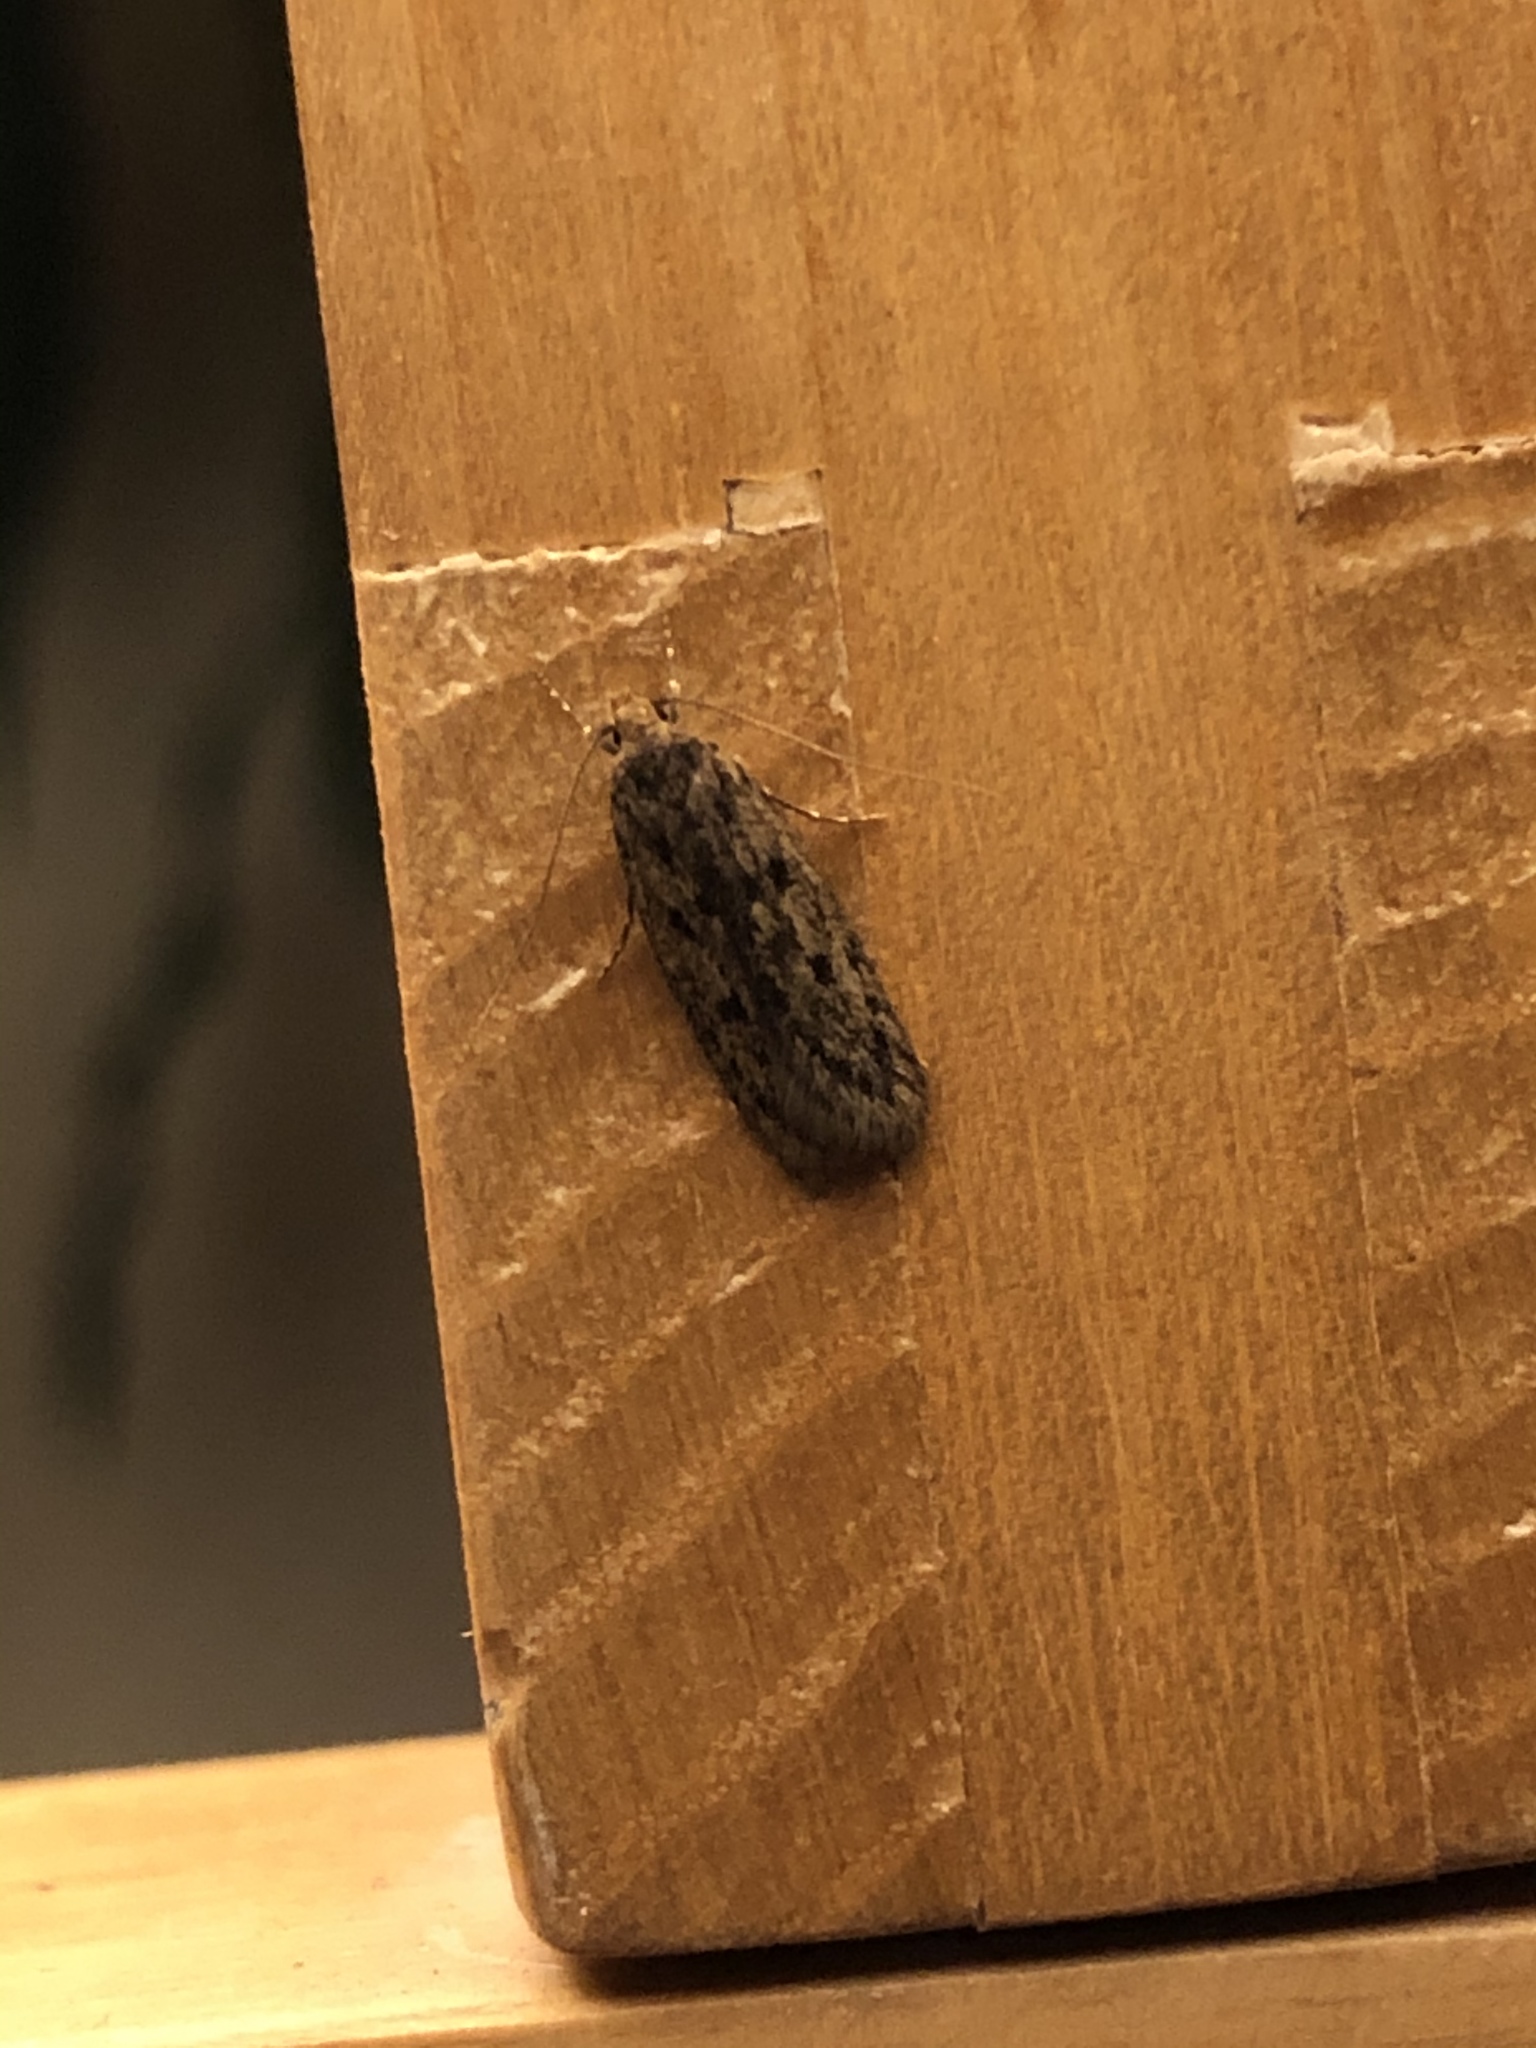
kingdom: Animalia
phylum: Arthropoda
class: Insecta
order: Lepidoptera
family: Oecophoridae
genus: Hofmannophila
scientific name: Hofmannophila pseudospretella
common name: Brown house moth
